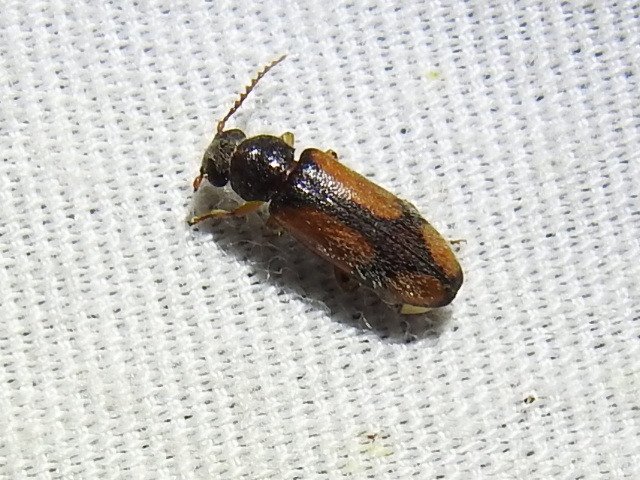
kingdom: Animalia
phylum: Arthropoda
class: Insecta
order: Coleoptera
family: Oedemeridae
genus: Polypria
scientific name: Polypria
